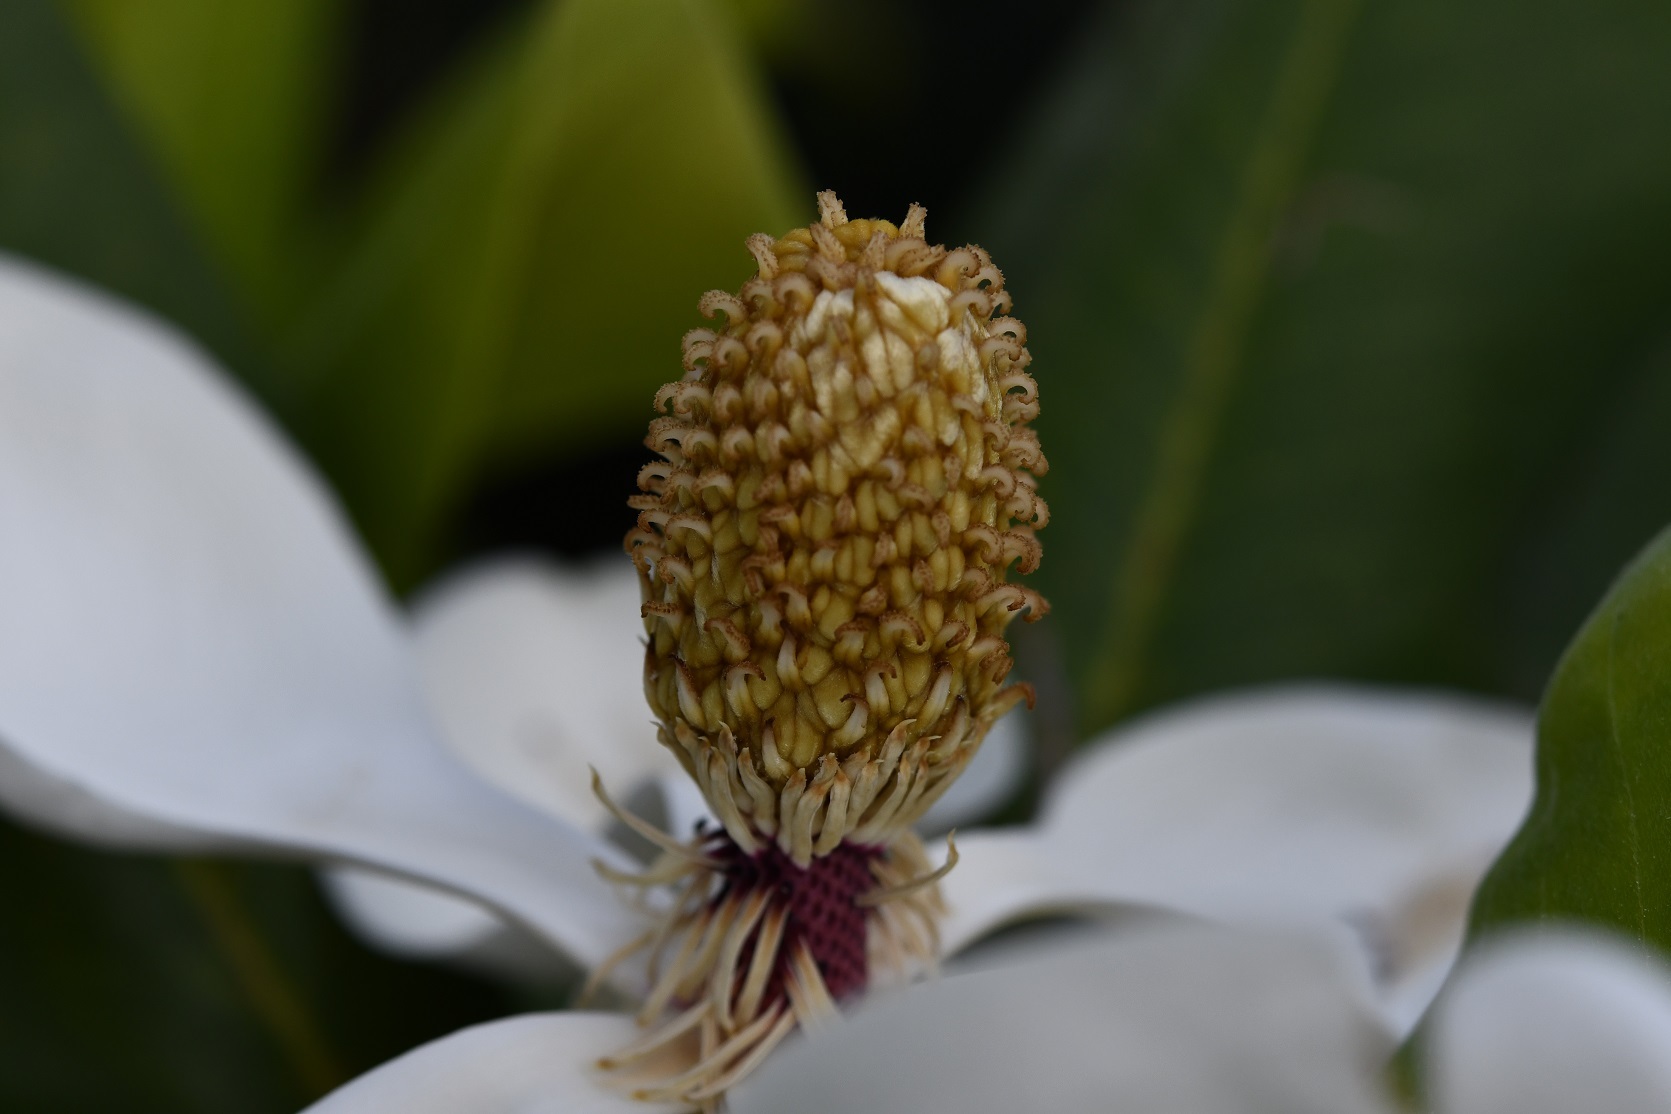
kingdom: Plantae
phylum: Tracheophyta
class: Magnoliopsida
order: Magnoliales
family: Magnoliaceae
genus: Magnolia
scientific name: Magnolia sharpii
